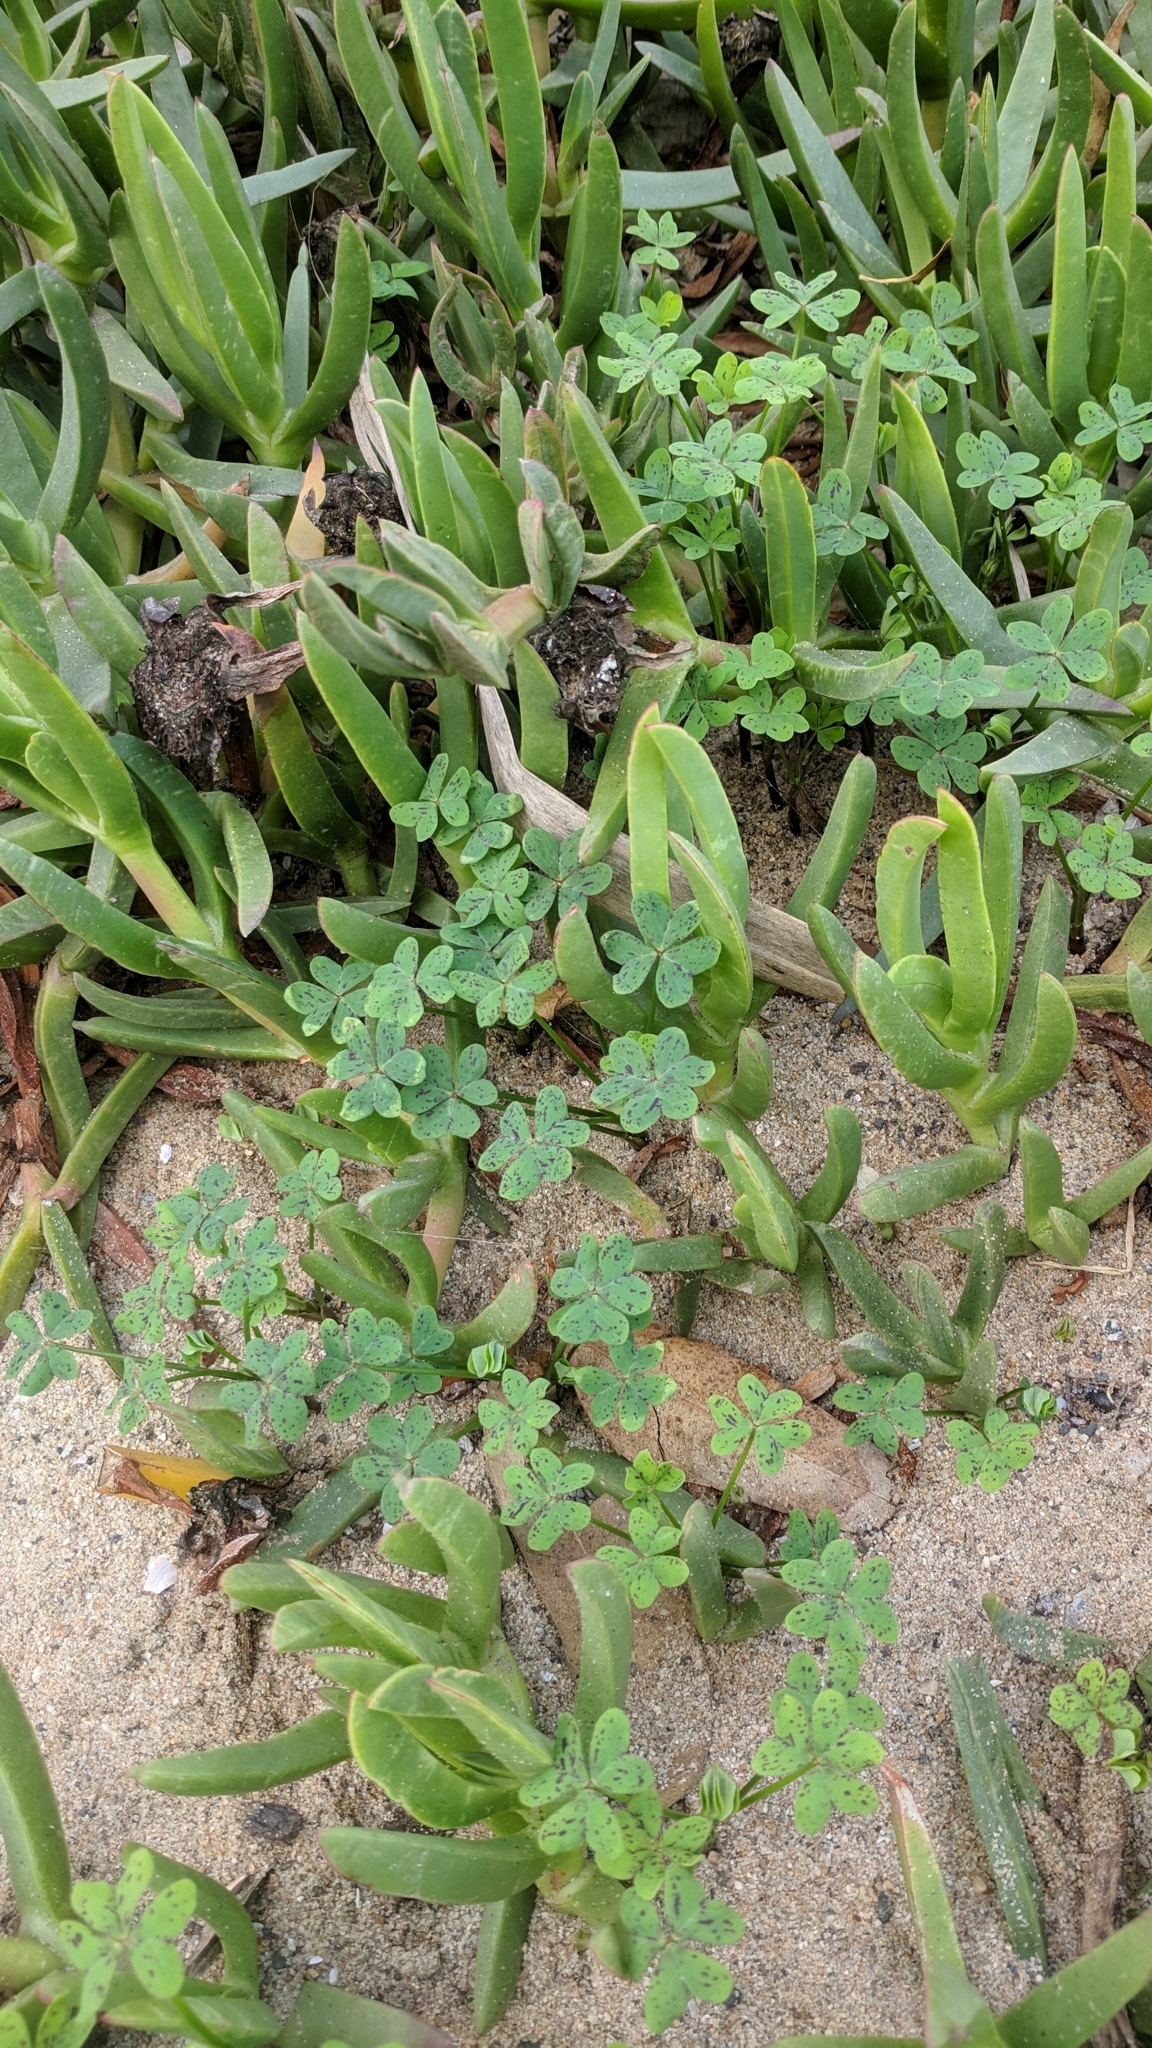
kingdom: Plantae
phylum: Tracheophyta
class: Magnoliopsida
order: Oxalidales
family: Oxalidaceae
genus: Oxalis
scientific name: Oxalis pes-caprae
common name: Bermuda-buttercup
